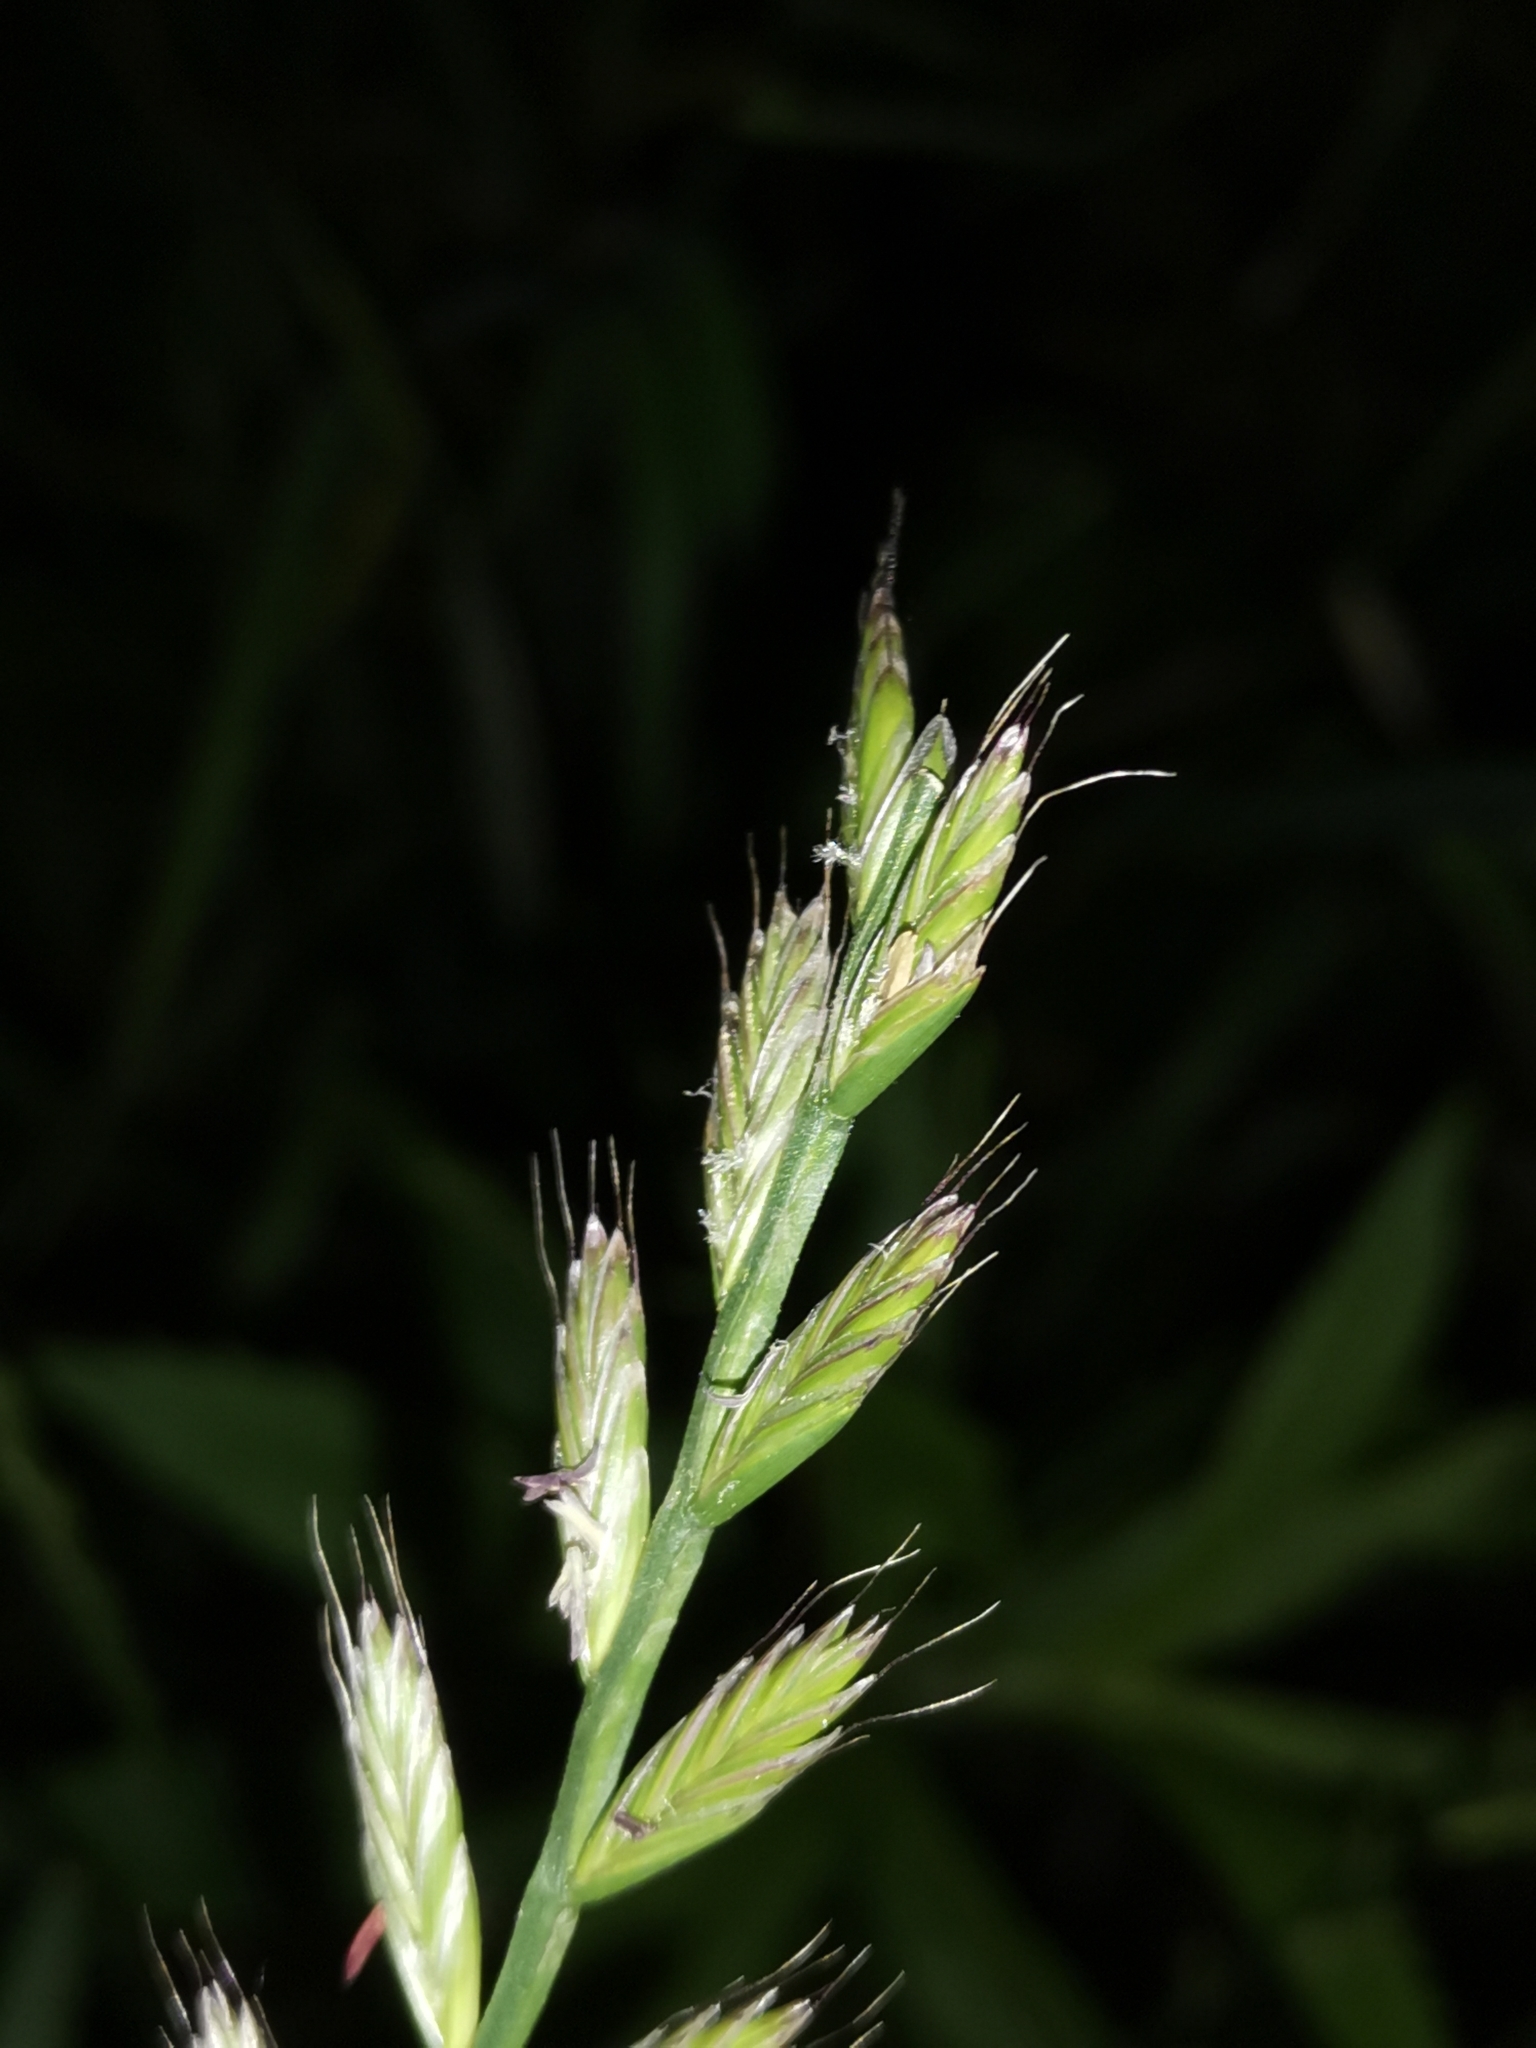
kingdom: Plantae
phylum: Tracheophyta
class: Liliopsida
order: Poales
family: Poaceae
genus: Lolium
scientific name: Lolium multiflorum
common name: Annual ryegrass
